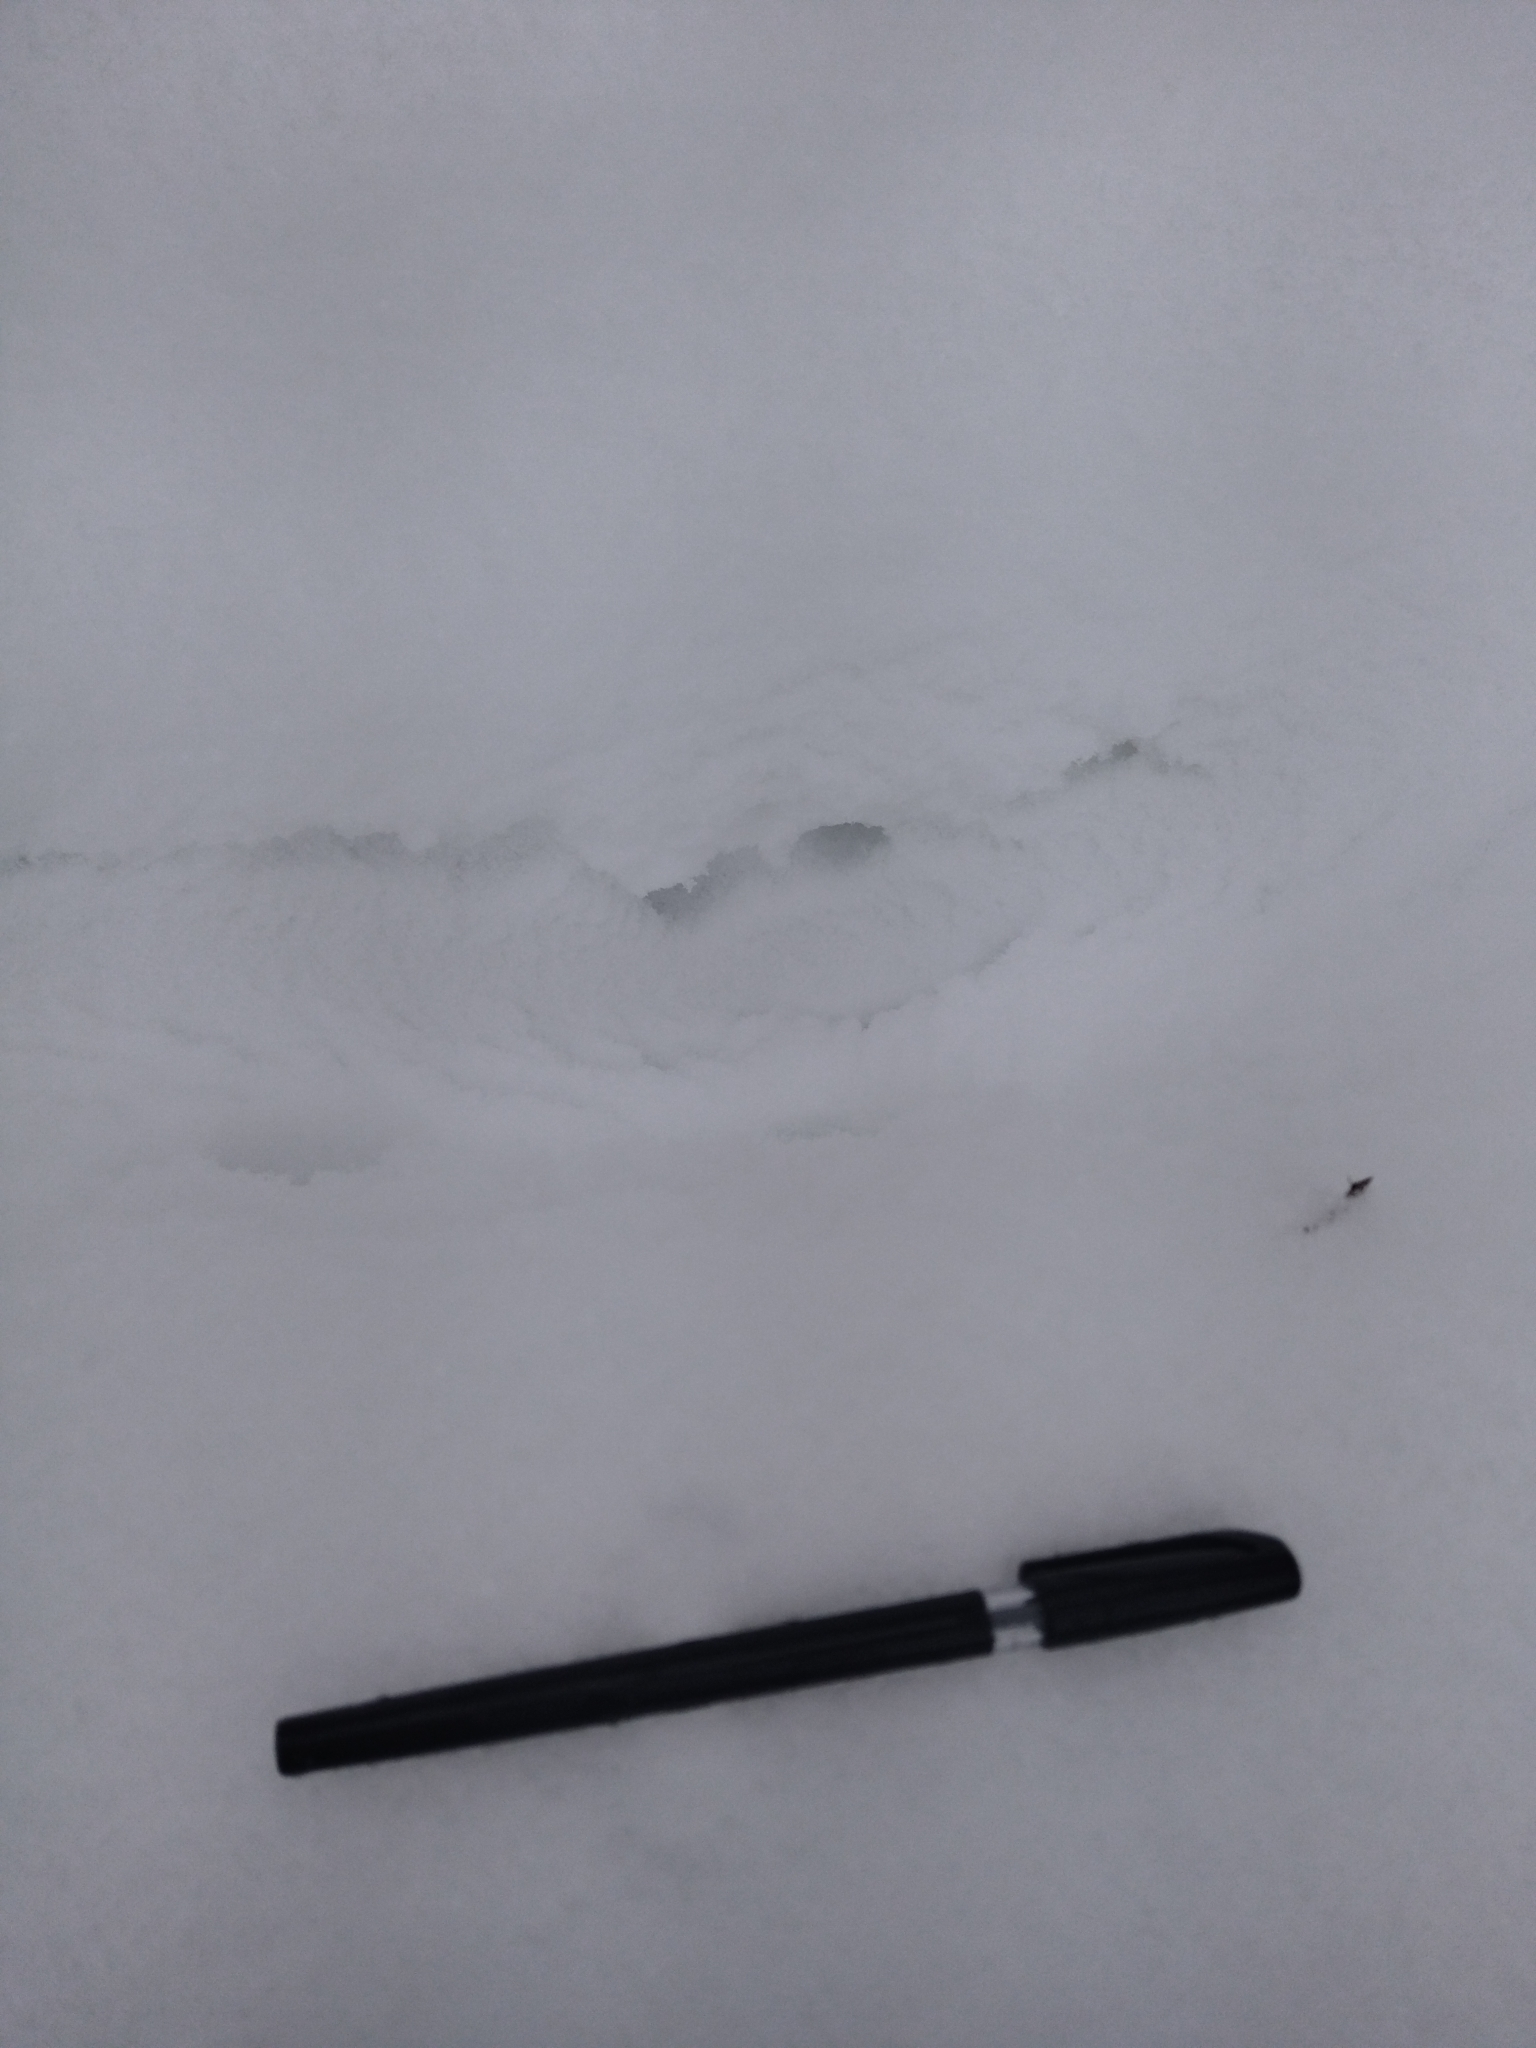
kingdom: Animalia
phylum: Chordata
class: Mammalia
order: Artiodactyla
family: Suidae
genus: Sus
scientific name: Sus scrofa
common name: Wild boar
